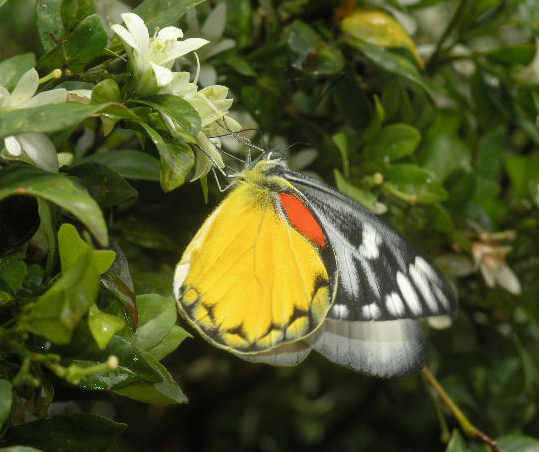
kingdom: Animalia
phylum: Arthropoda
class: Insecta
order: Lepidoptera
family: Pieridae
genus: Delias
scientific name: Delias descombesi
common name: Red-spot jezebel
